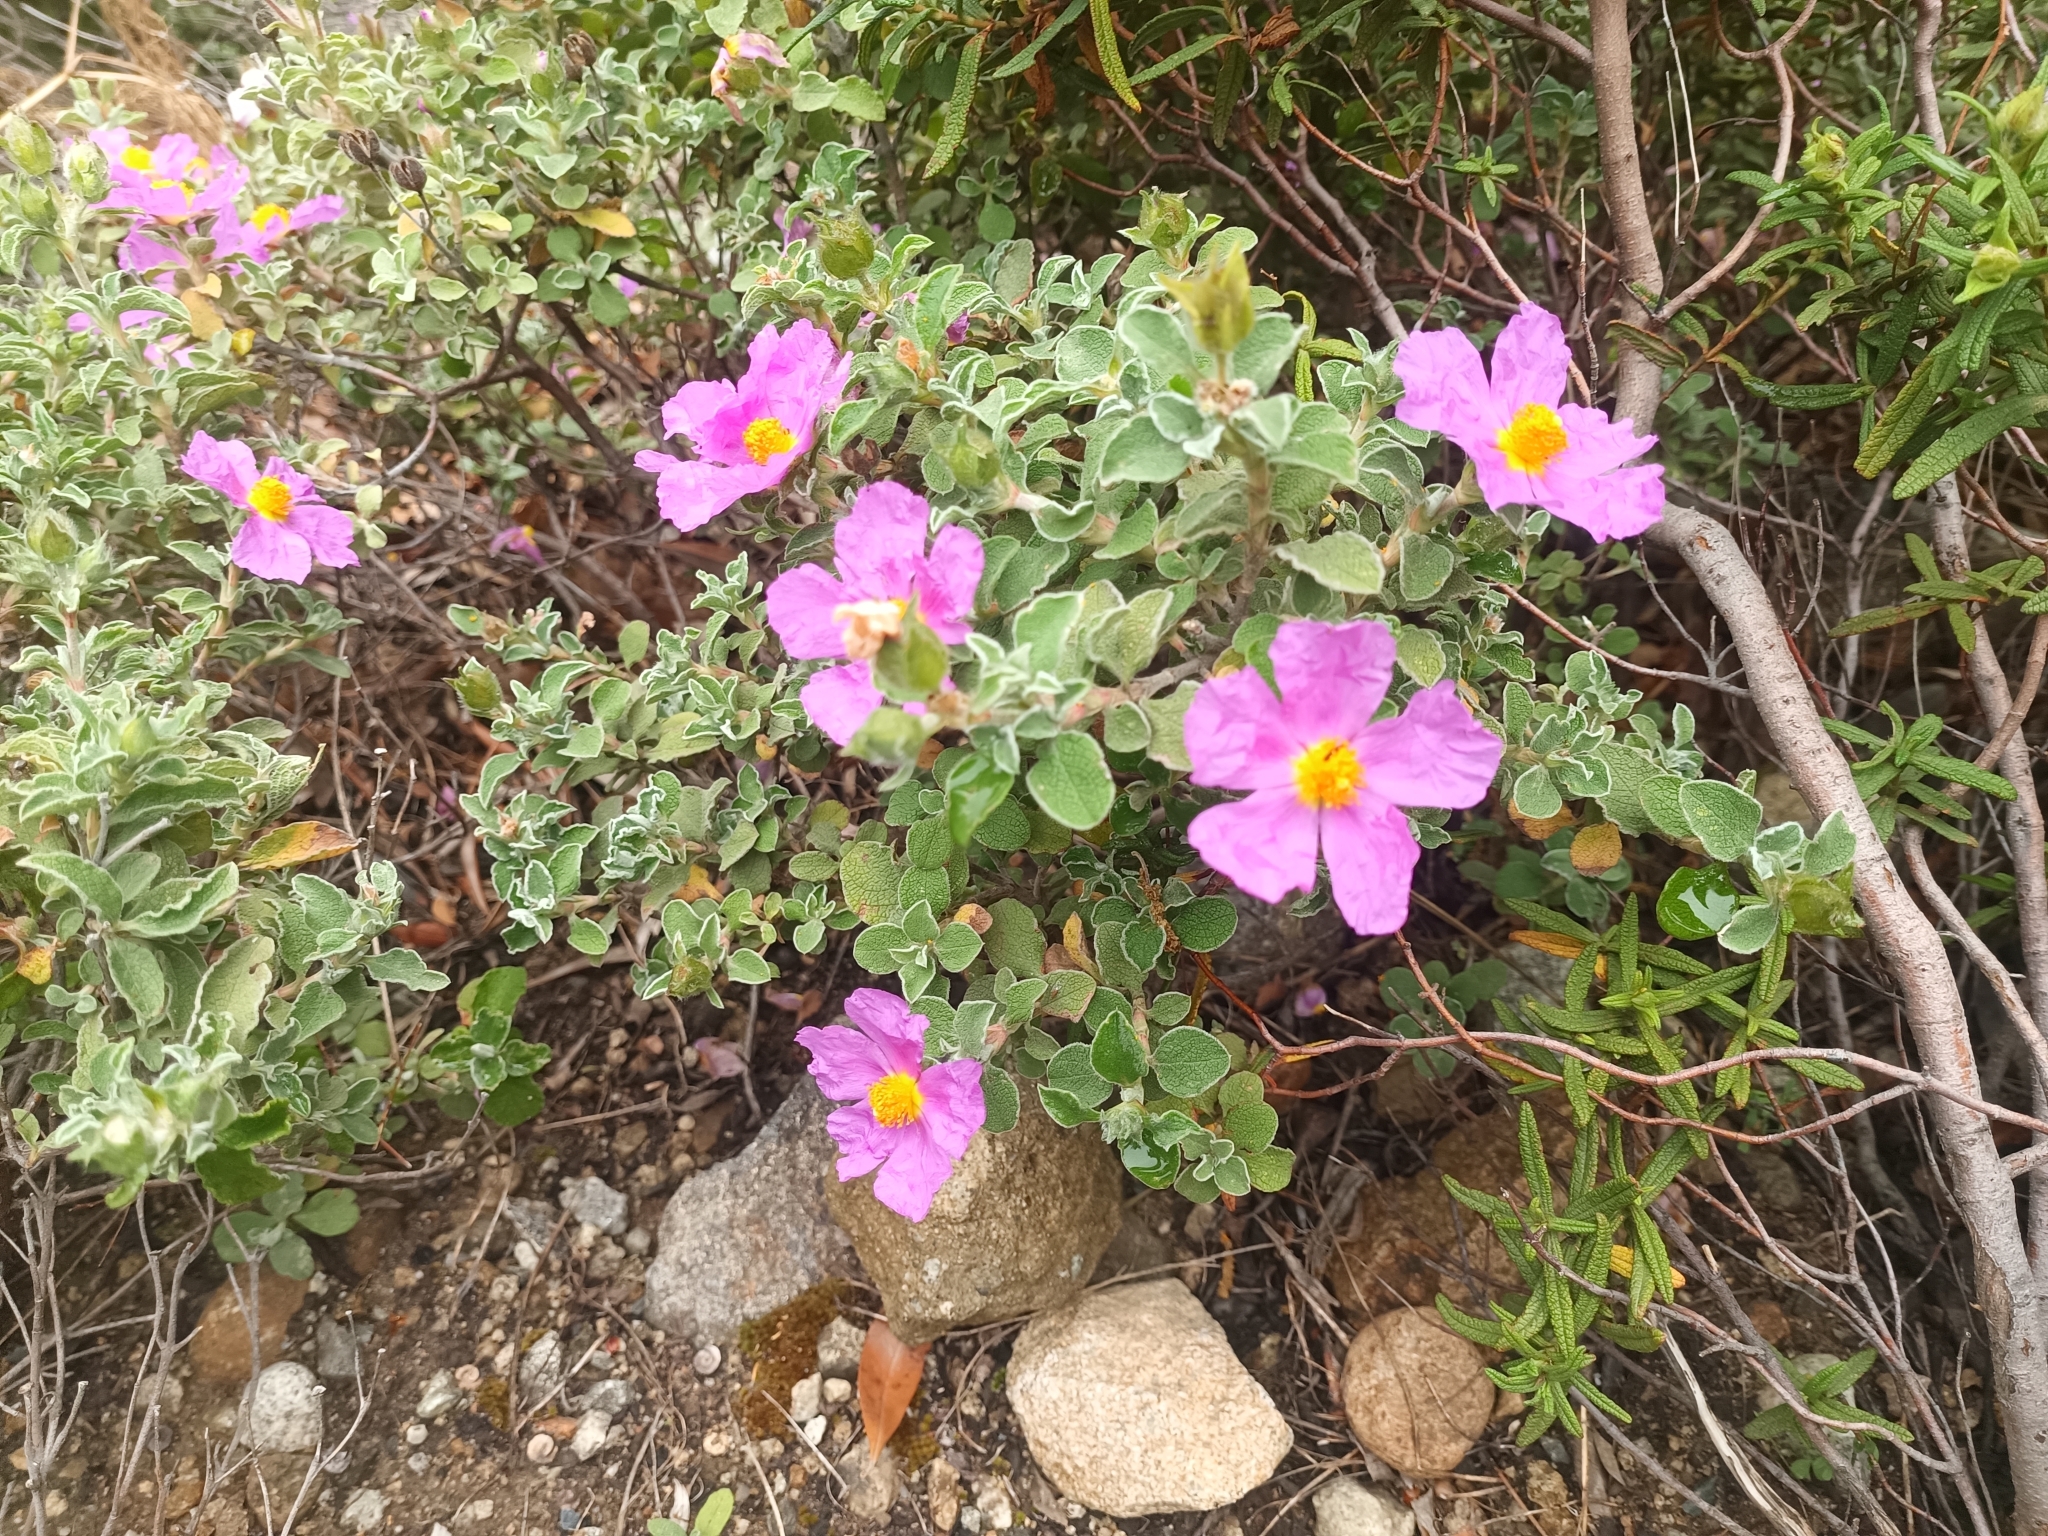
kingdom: Plantae
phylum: Tracheophyta
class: Magnoliopsida
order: Malvales
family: Cistaceae
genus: Cistus
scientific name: Cistus creticus
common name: Cretan rockrose
